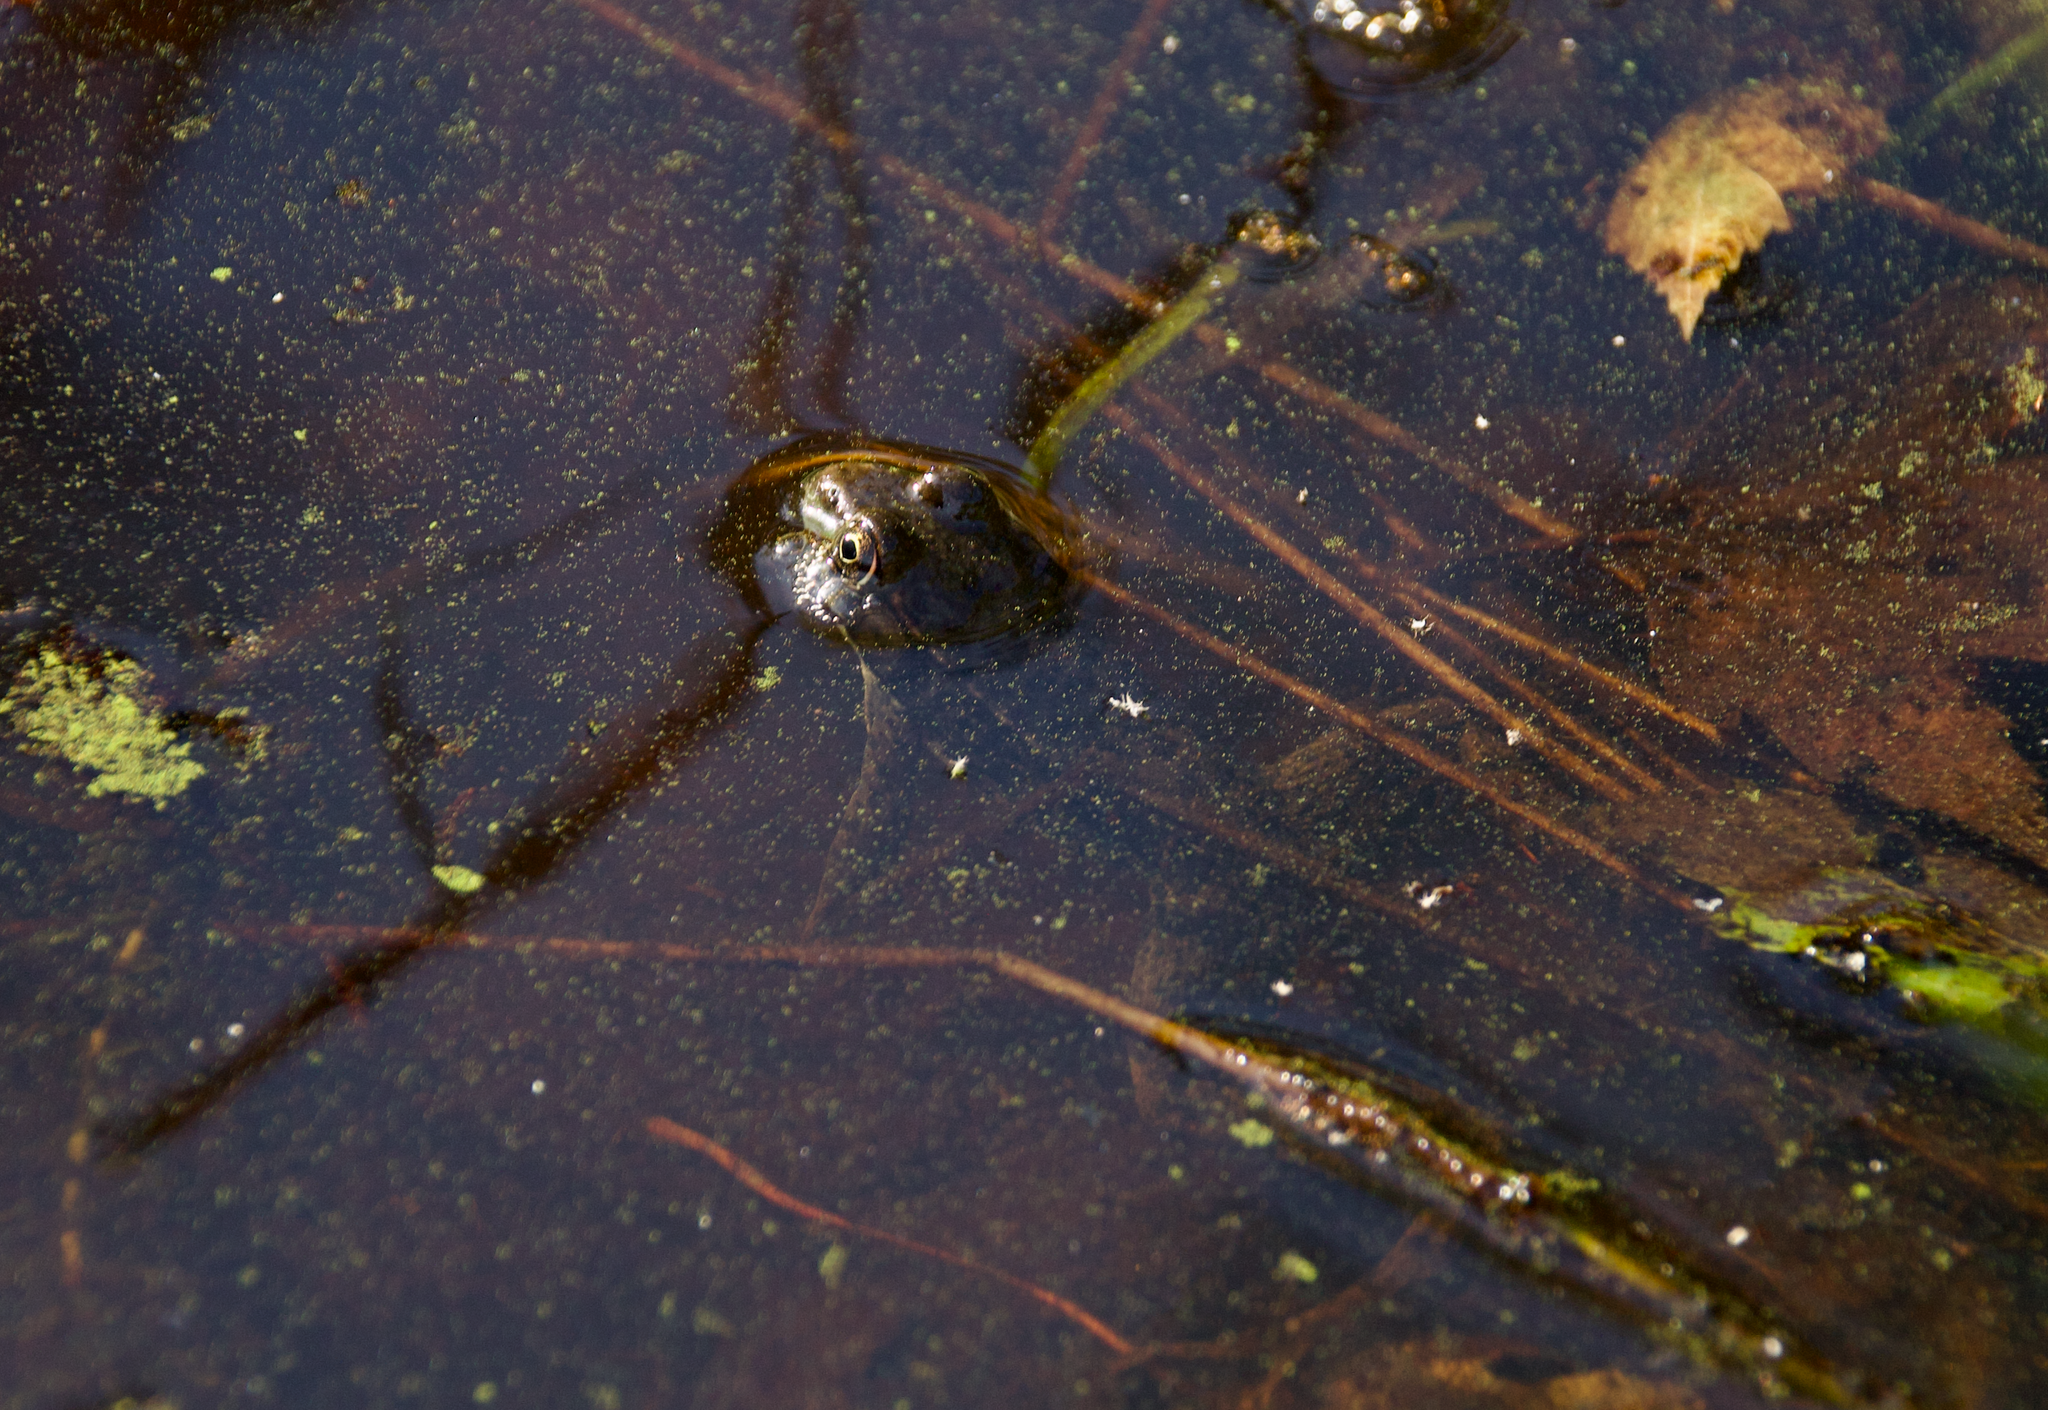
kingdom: Animalia
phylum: Chordata
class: Amphibia
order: Anura
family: Ranidae
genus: Lithobates
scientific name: Lithobates clamitans
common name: Green frog
